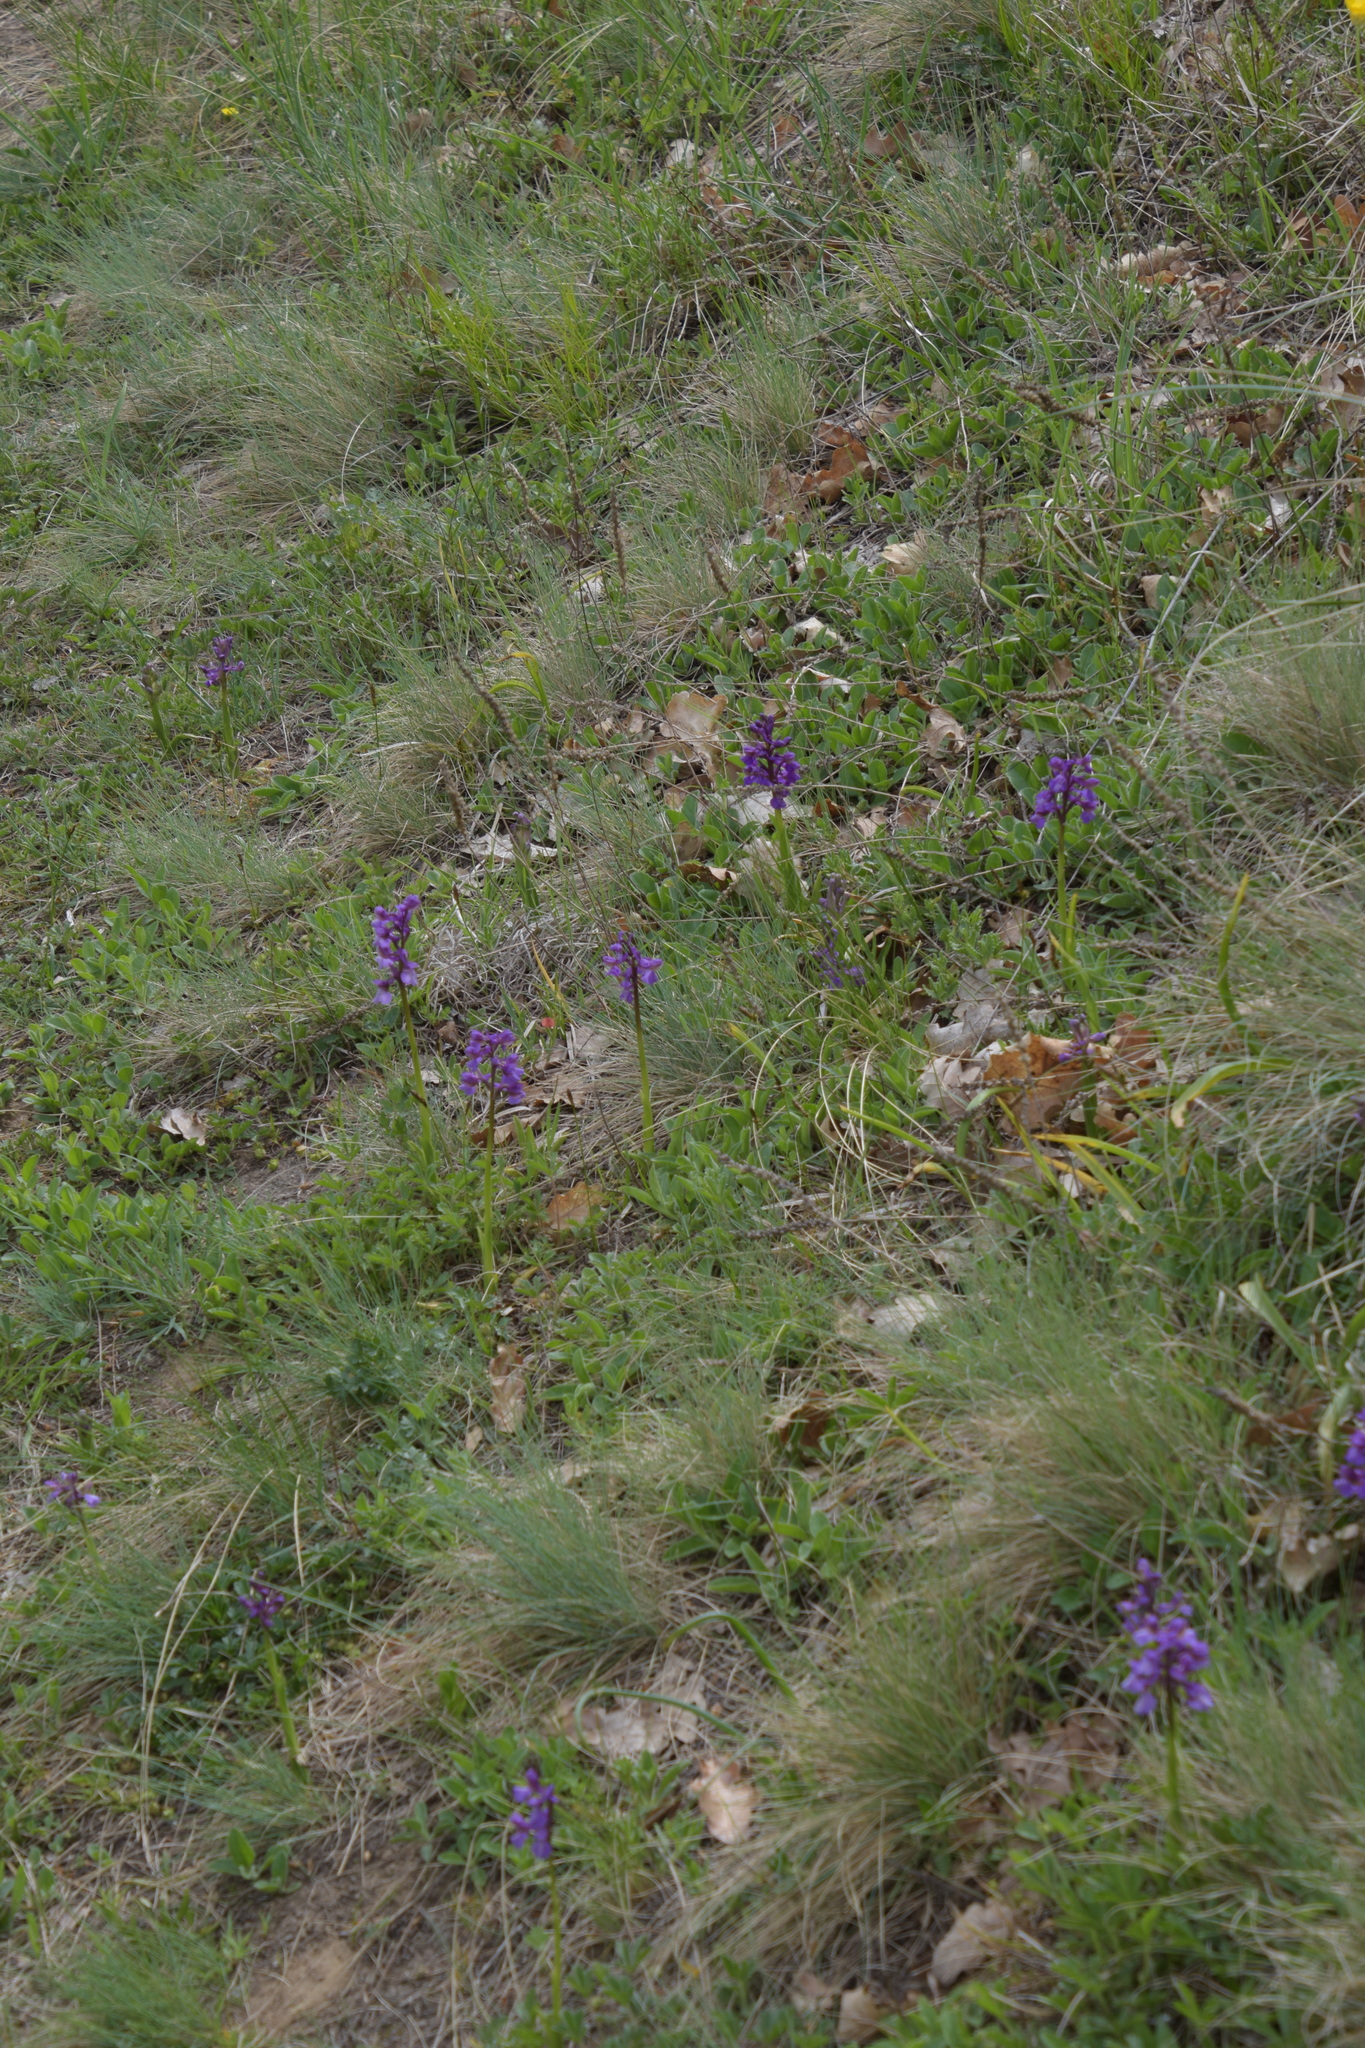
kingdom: Plantae
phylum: Tracheophyta
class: Liliopsida
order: Asparagales
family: Orchidaceae
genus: Anacamptis
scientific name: Anacamptis morio
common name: Green-winged orchid
